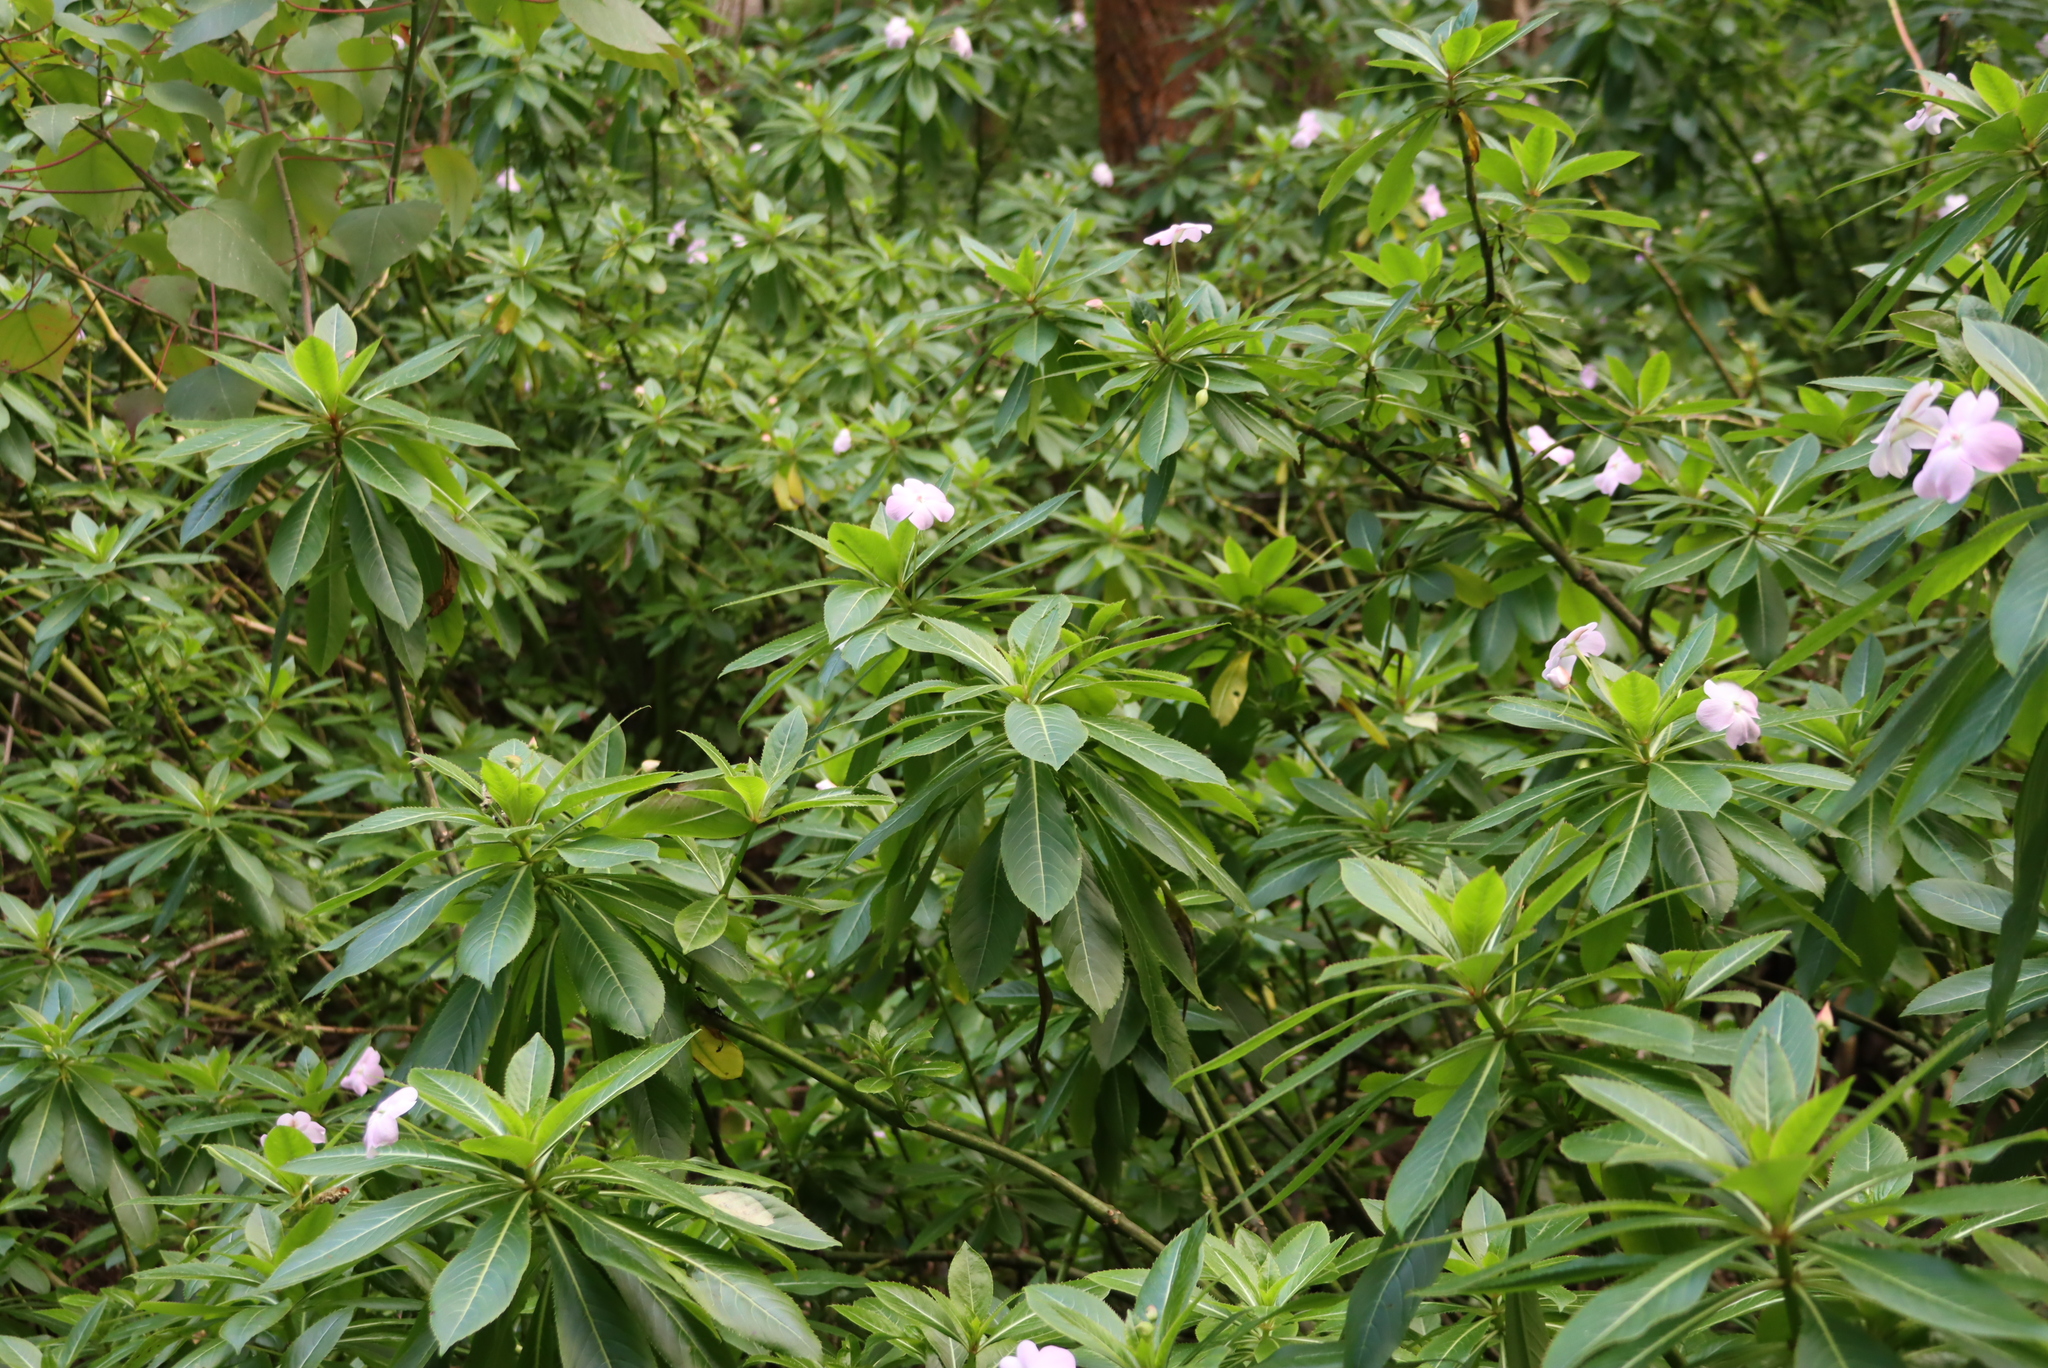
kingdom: Plantae
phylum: Tracheophyta
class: Magnoliopsida
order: Ericales
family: Balsaminaceae
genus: Impatiens
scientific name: Impatiens sodenii
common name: Oliver's touch-me-not
